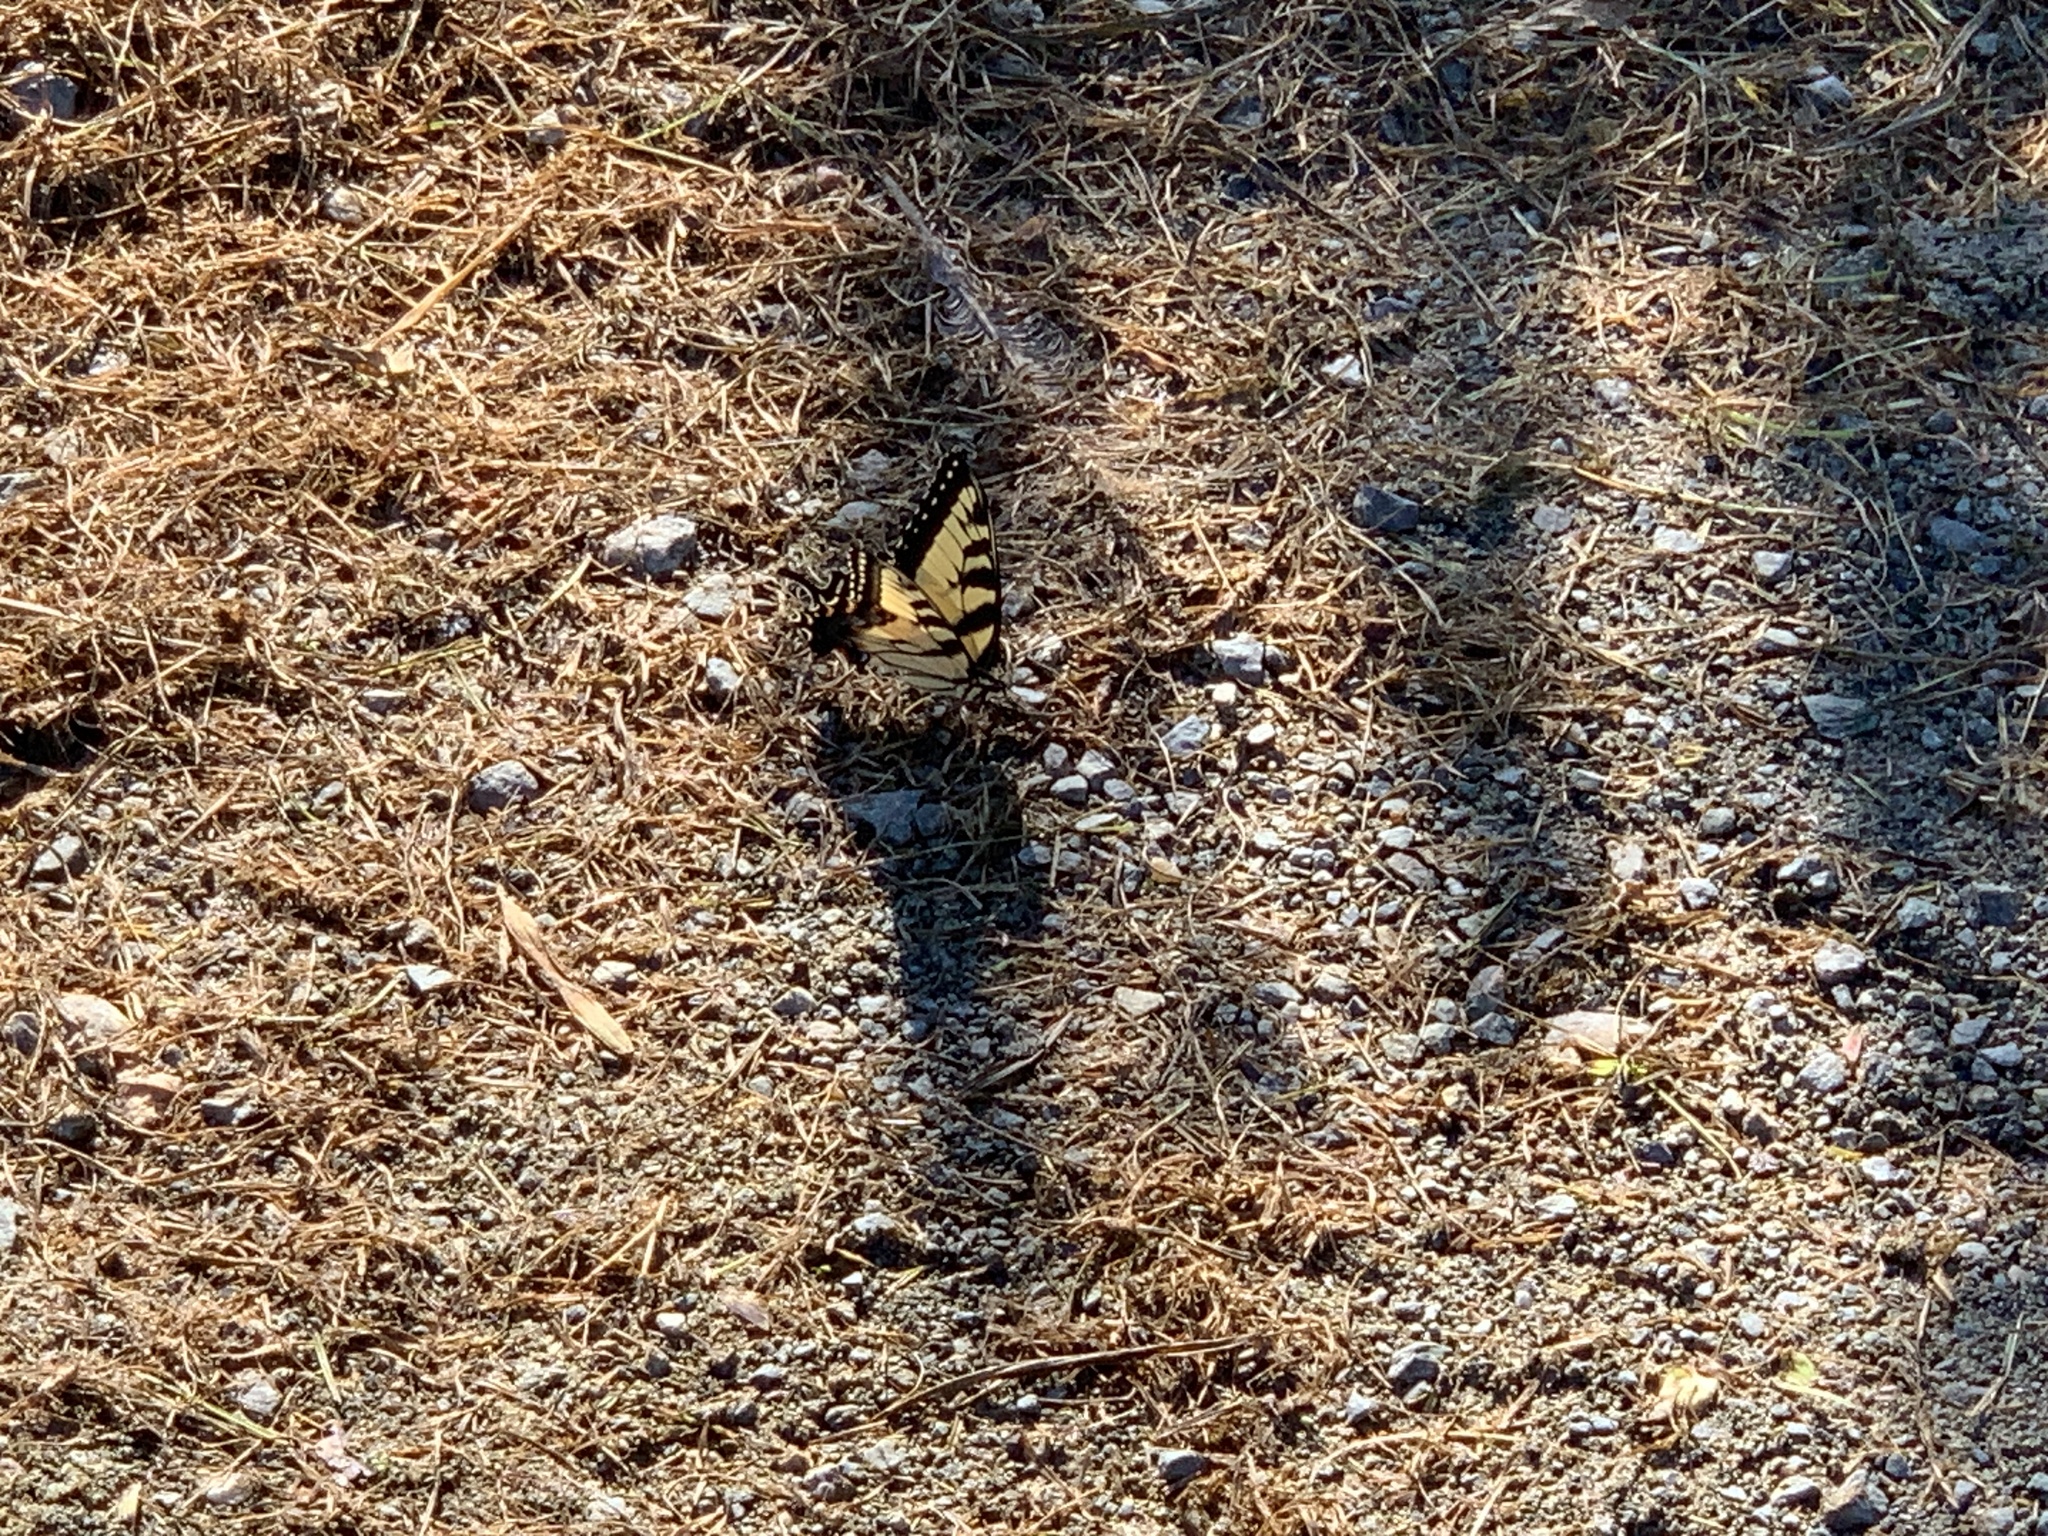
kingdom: Animalia
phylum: Arthropoda
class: Insecta
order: Lepidoptera
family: Papilionidae
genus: Papilio
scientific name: Papilio glaucus
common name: Tiger swallowtail
